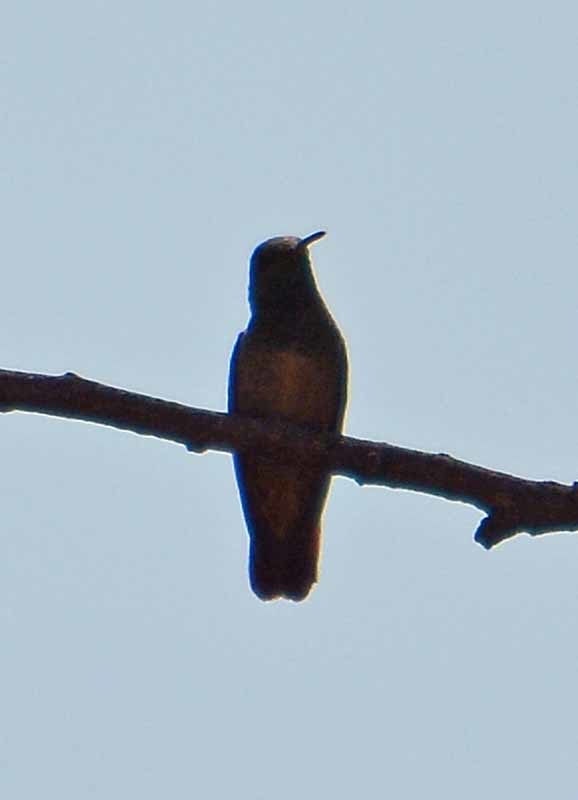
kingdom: Animalia
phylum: Chordata
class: Aves
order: Apodiformes
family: Trochilidae
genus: Saucerottia
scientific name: Saucerottia beryllina
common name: Berylline hummingbird
